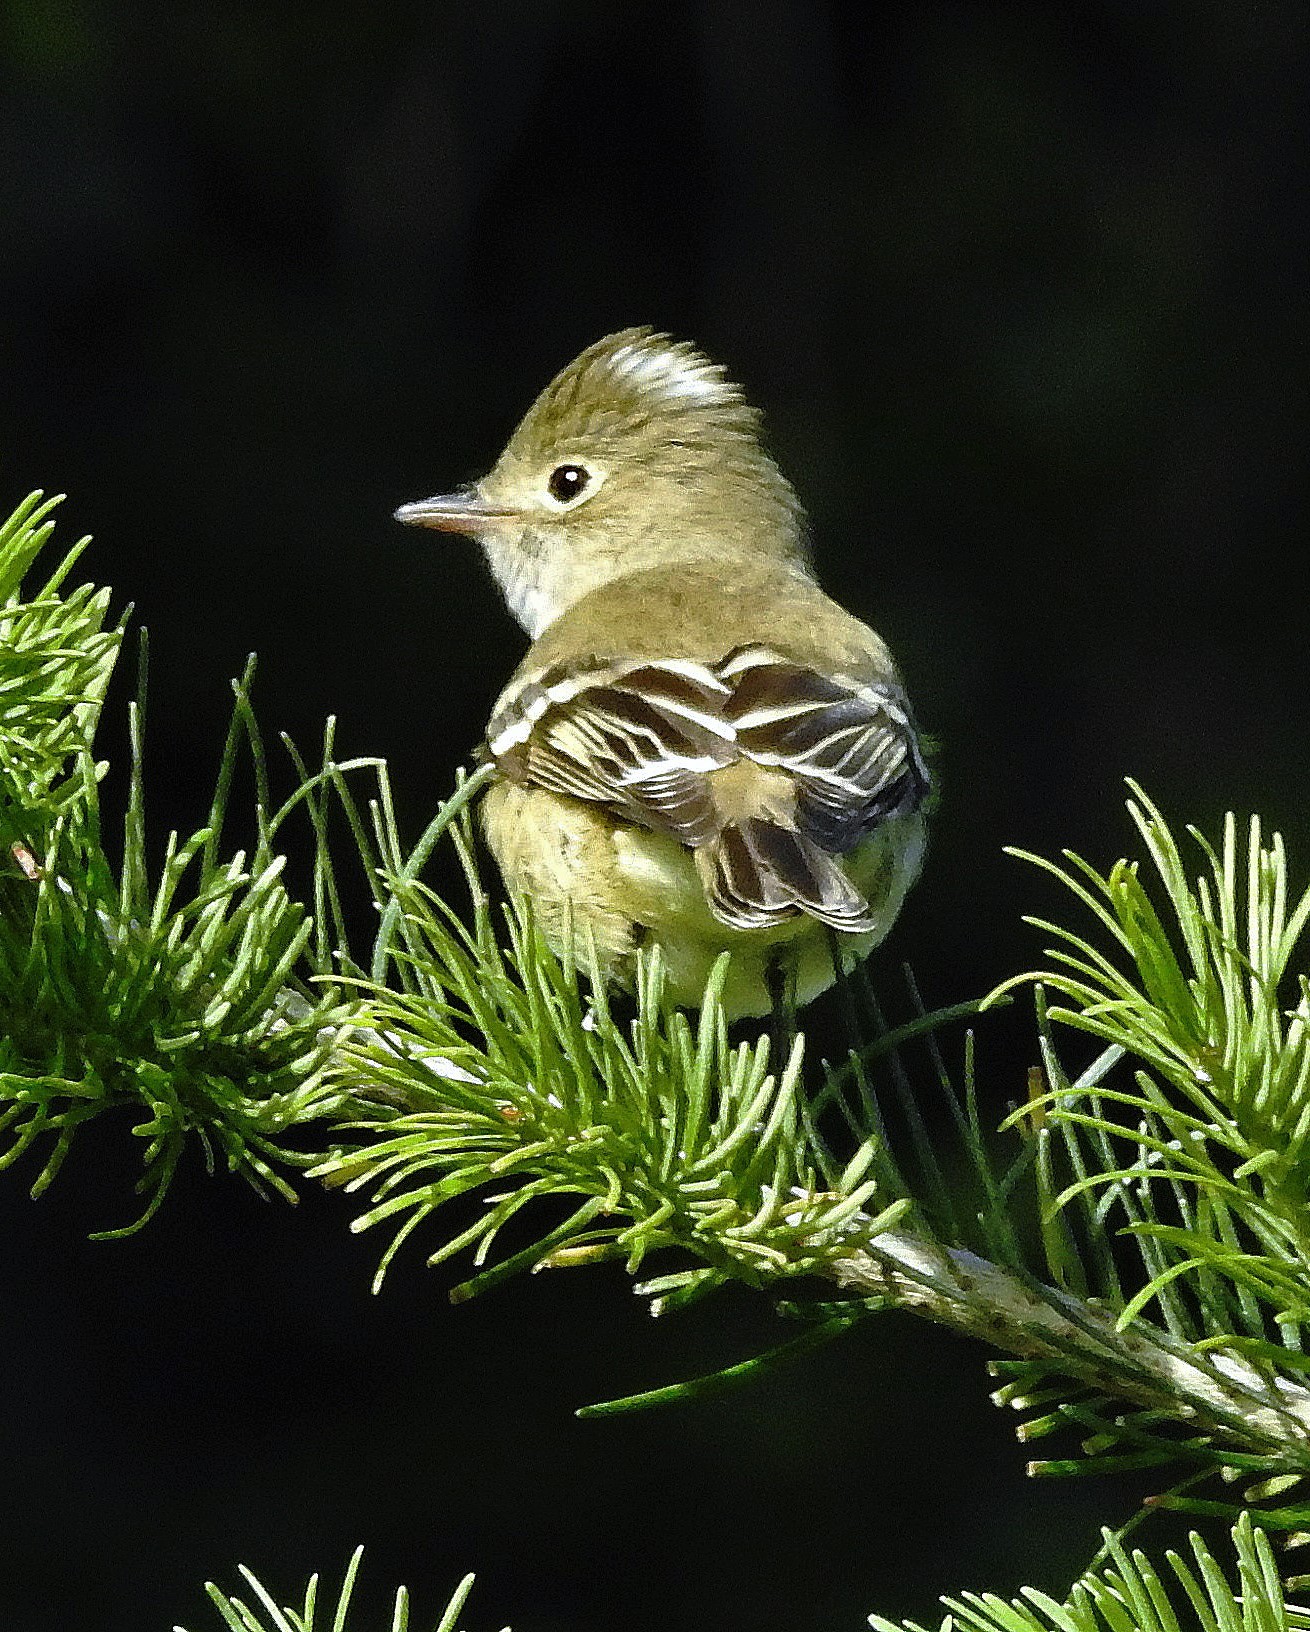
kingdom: Animalia
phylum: Chordata
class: Aves
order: Passeriformes
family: Tyrannidae
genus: Elaenia
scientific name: Elaenia albiceps
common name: White-crested elaenia
